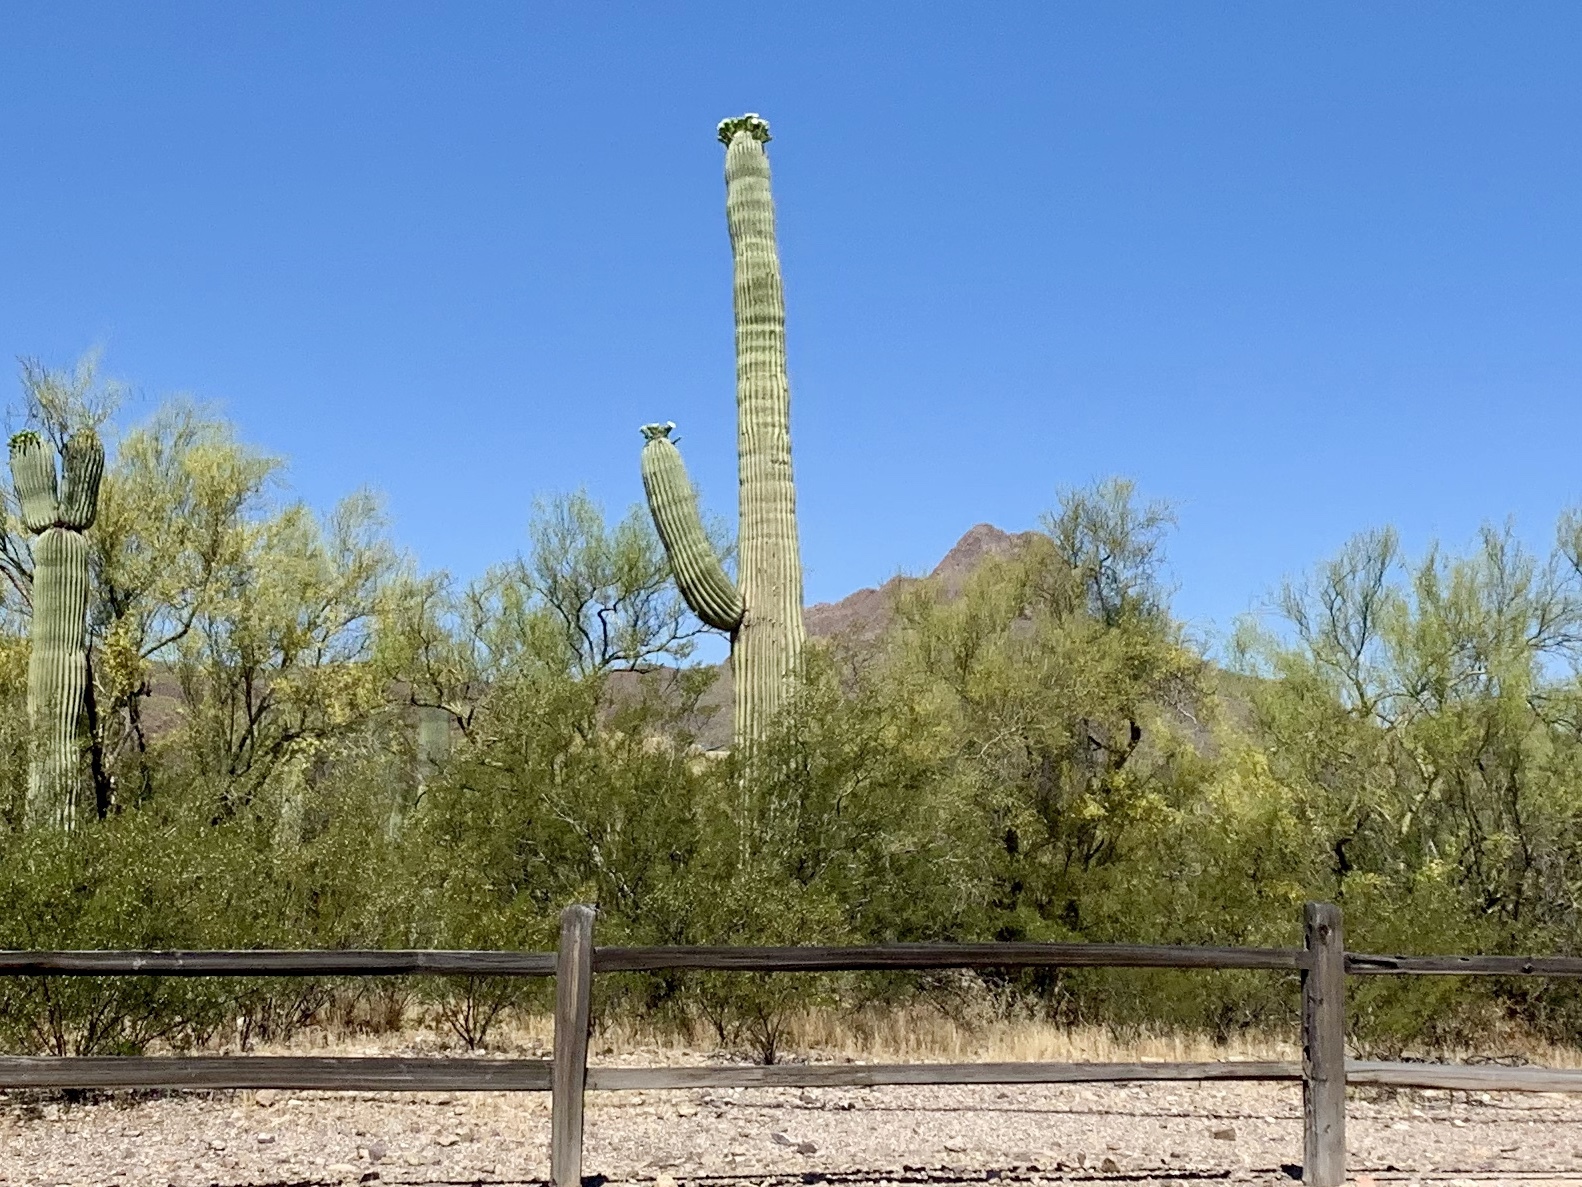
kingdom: Plantae
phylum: Tracheophyta
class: Magnoliopsida
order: Caryophyllales
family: Cactaceae
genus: Carnegiea
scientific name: Carnegiea gigantea
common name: Saguaro
